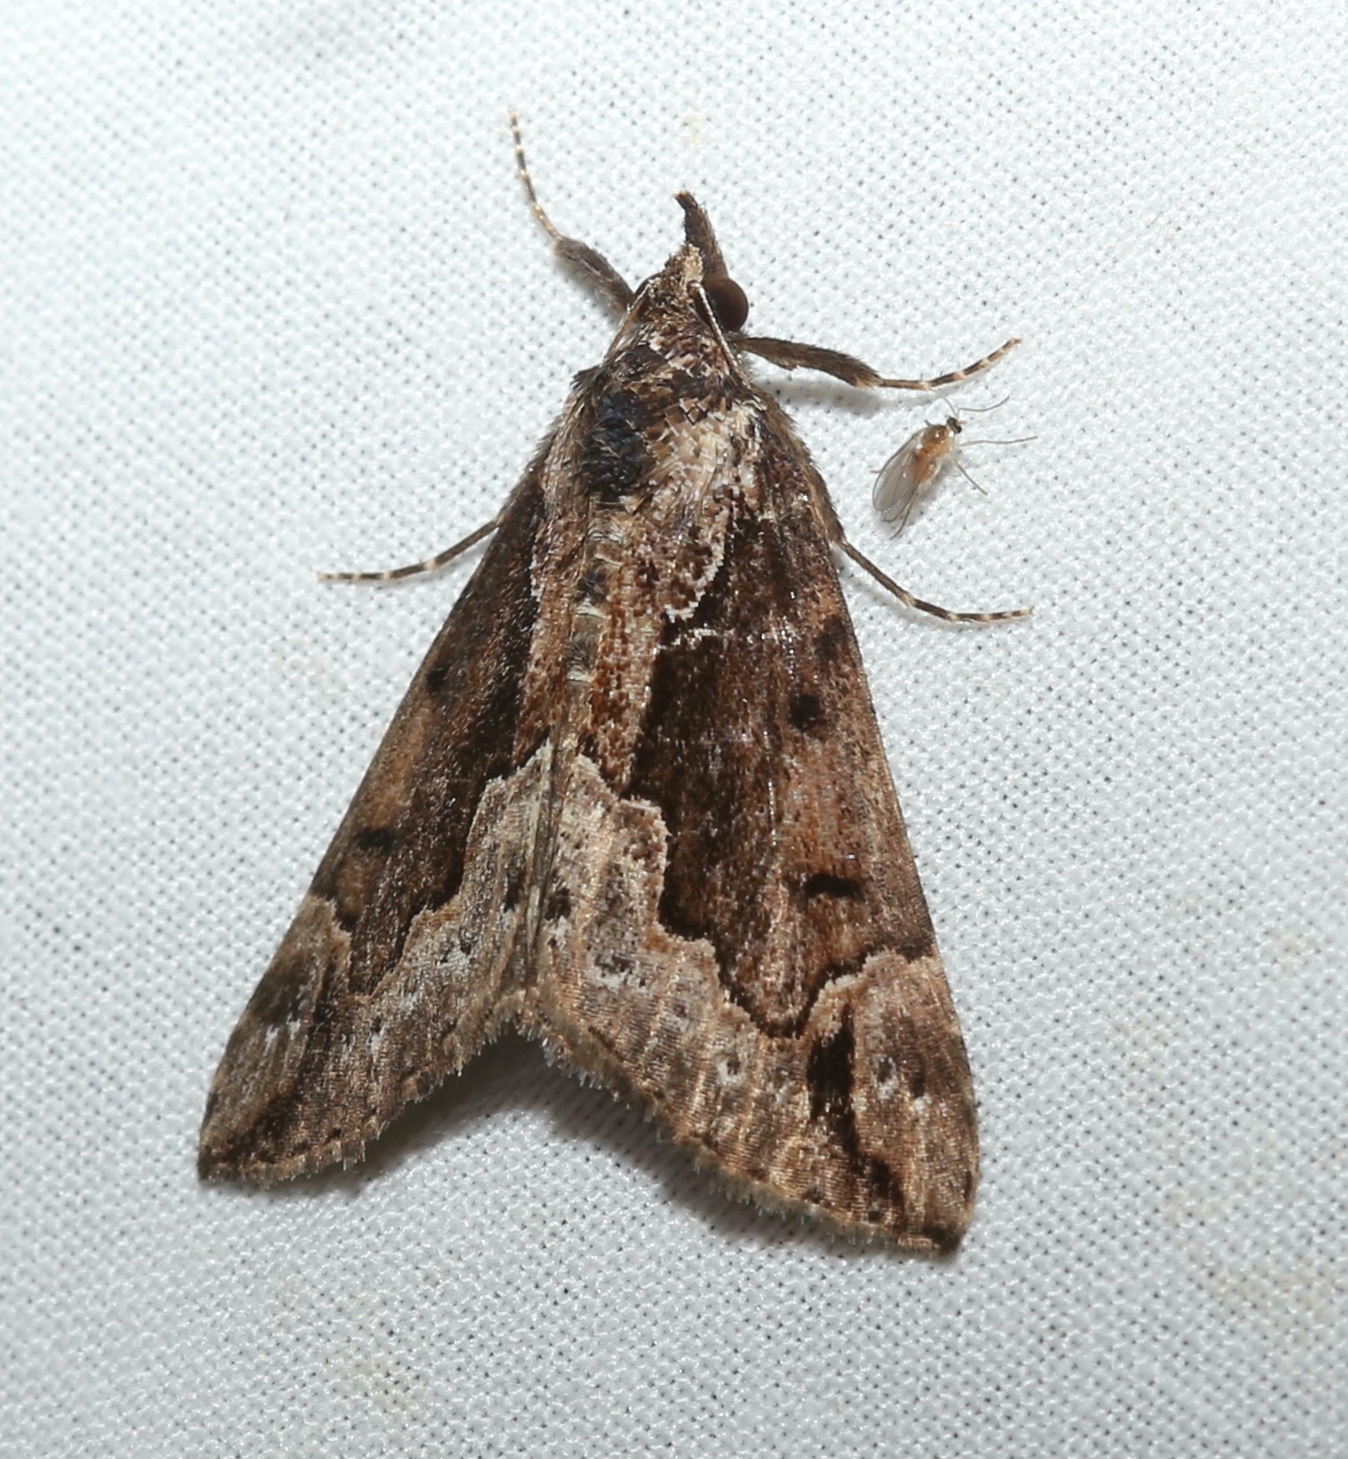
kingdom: Animalia
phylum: Arthropoda
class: Insecta
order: Lepidoptera
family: Erebidae
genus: Hypena
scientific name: Hypena baltimoralis
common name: Baltimore snout
